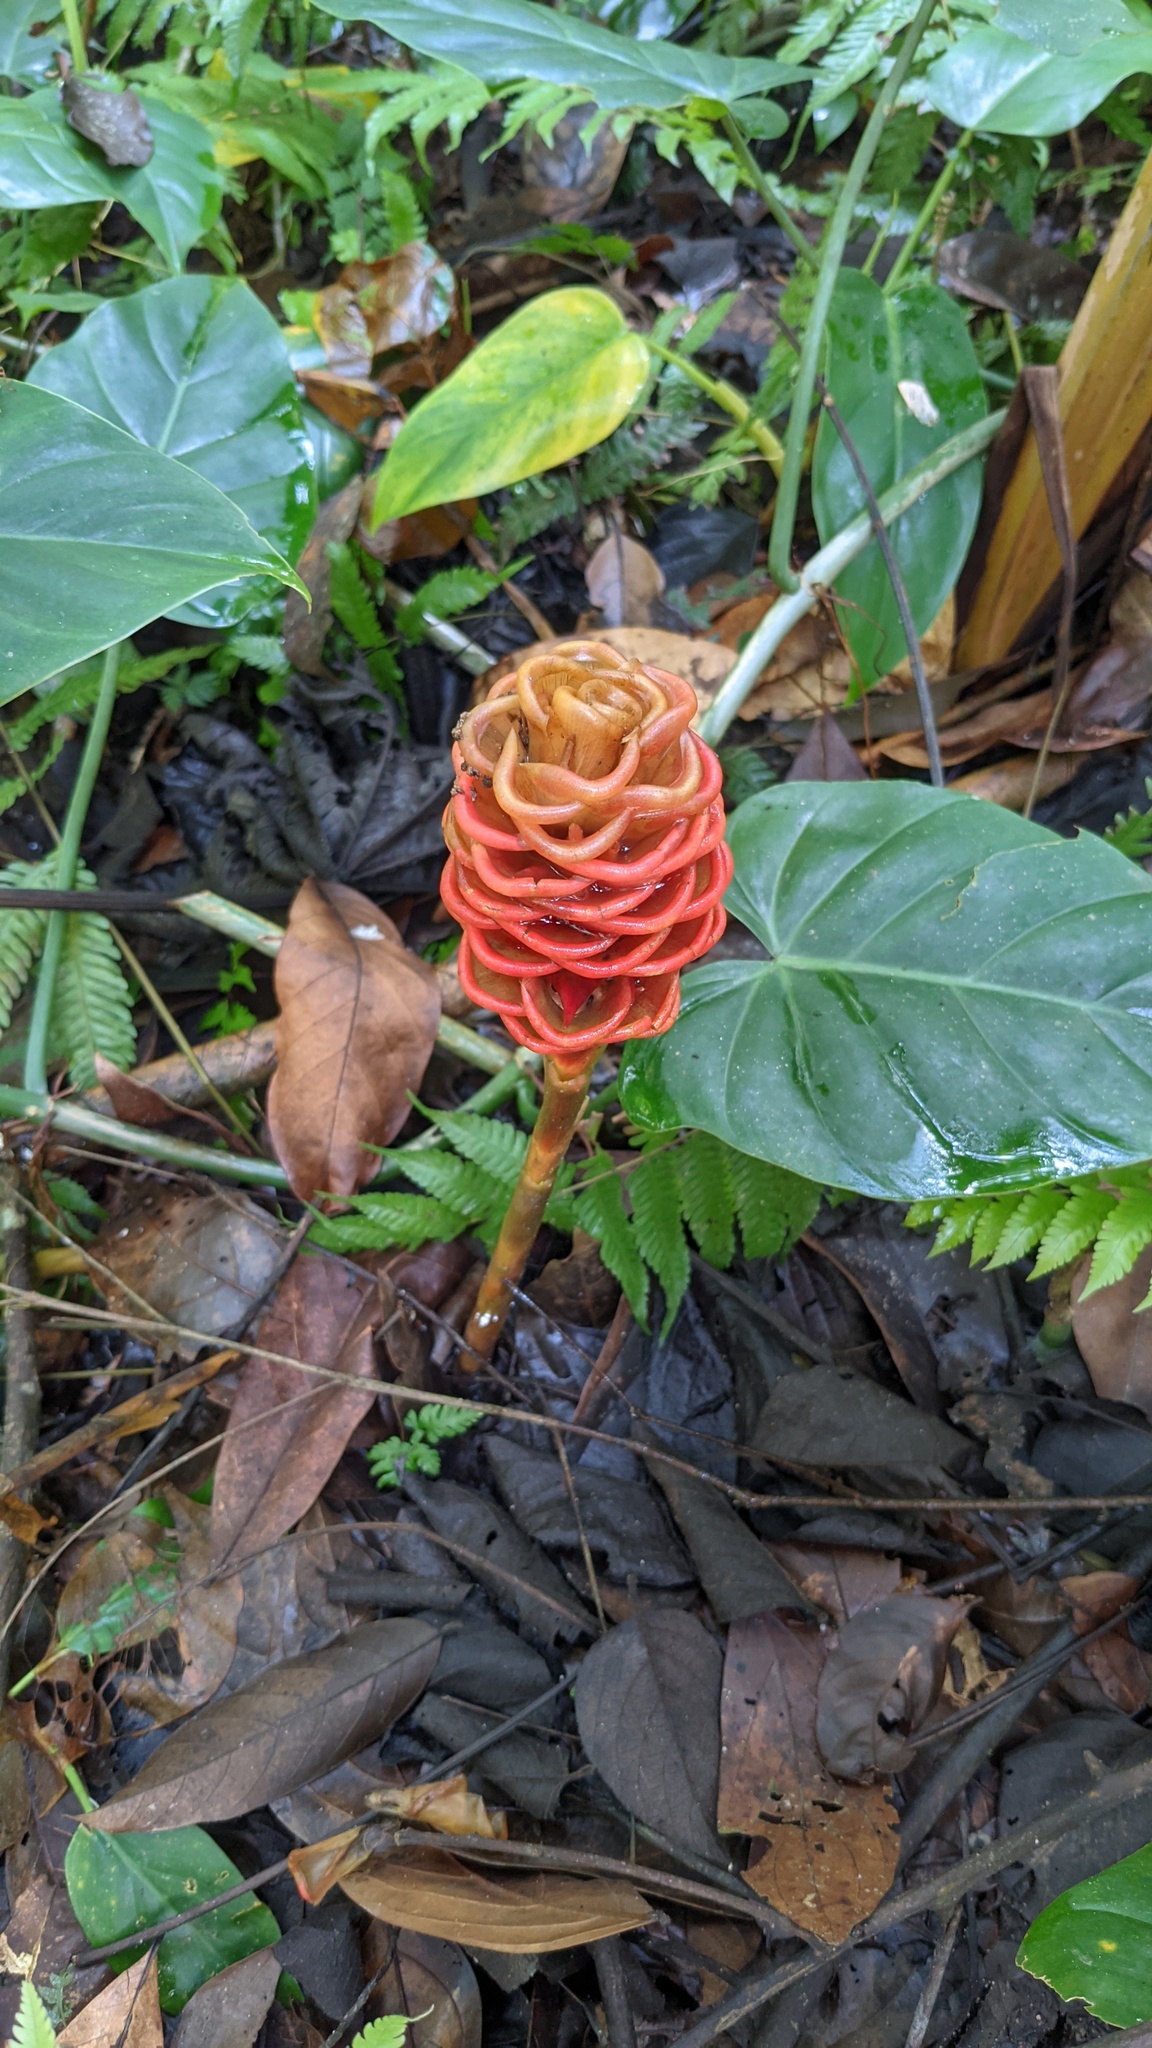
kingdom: Plantae
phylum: Tracheophyta
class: Liliopsida
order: Zingiberales
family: Zingiberaceae
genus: Zingiber
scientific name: Zingiber spectabile
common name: Beehive ginger
